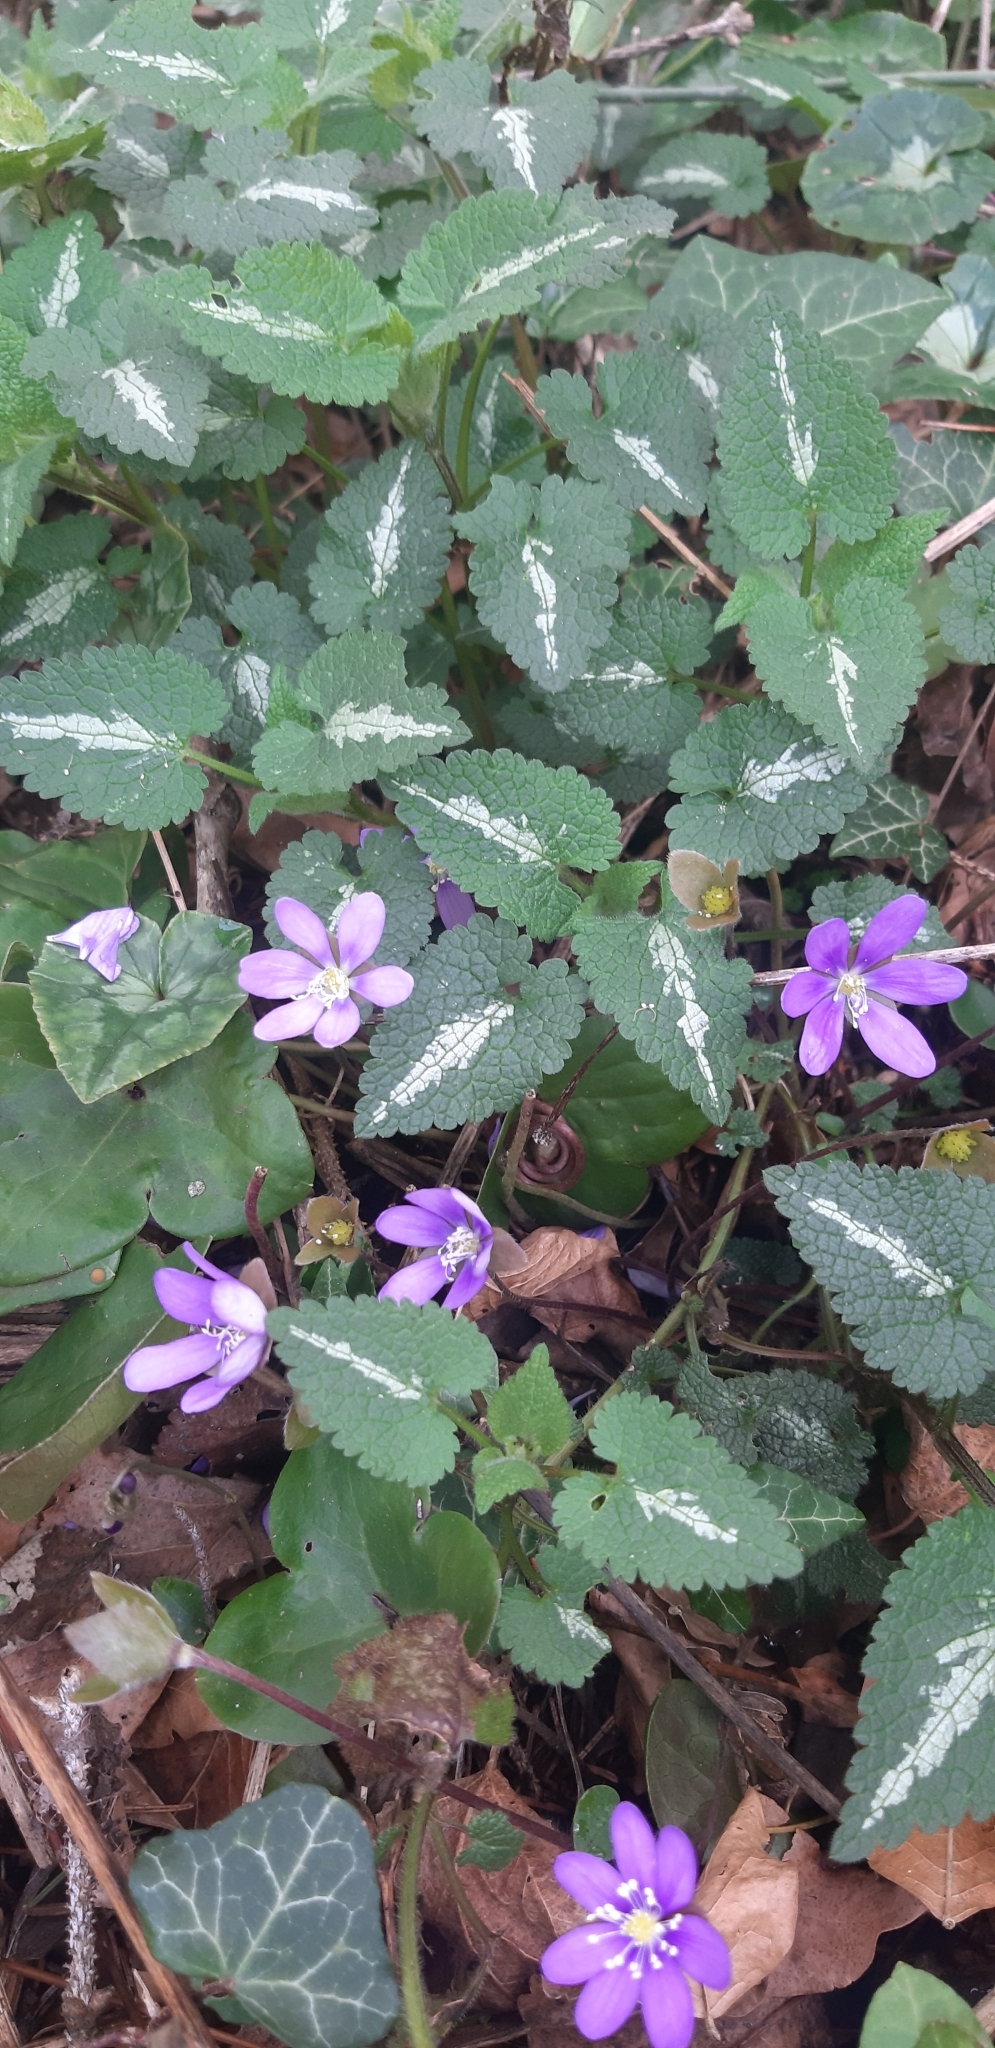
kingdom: Plantae
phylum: Tracheophyta
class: Magnoliopsida
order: Lamiales
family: Lamiaceae
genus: Lamium
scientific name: Lamium maculatum
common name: Spotted dead-nettle
